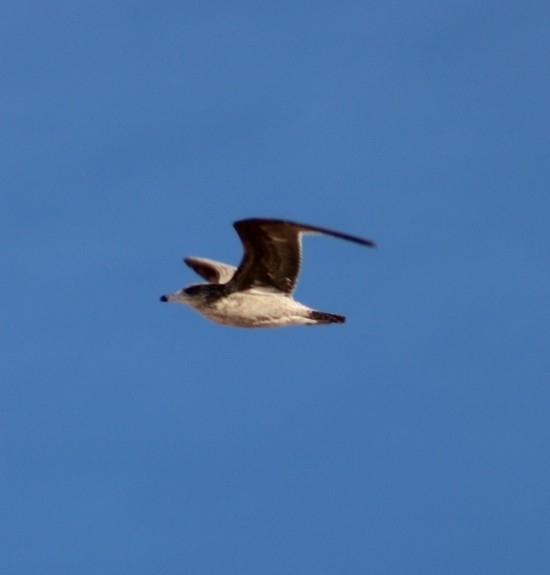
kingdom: Animalia
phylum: Chordata
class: Aves
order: Charadriiformes
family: Laridae
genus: Larus
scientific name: Larus californicus
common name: California gull
